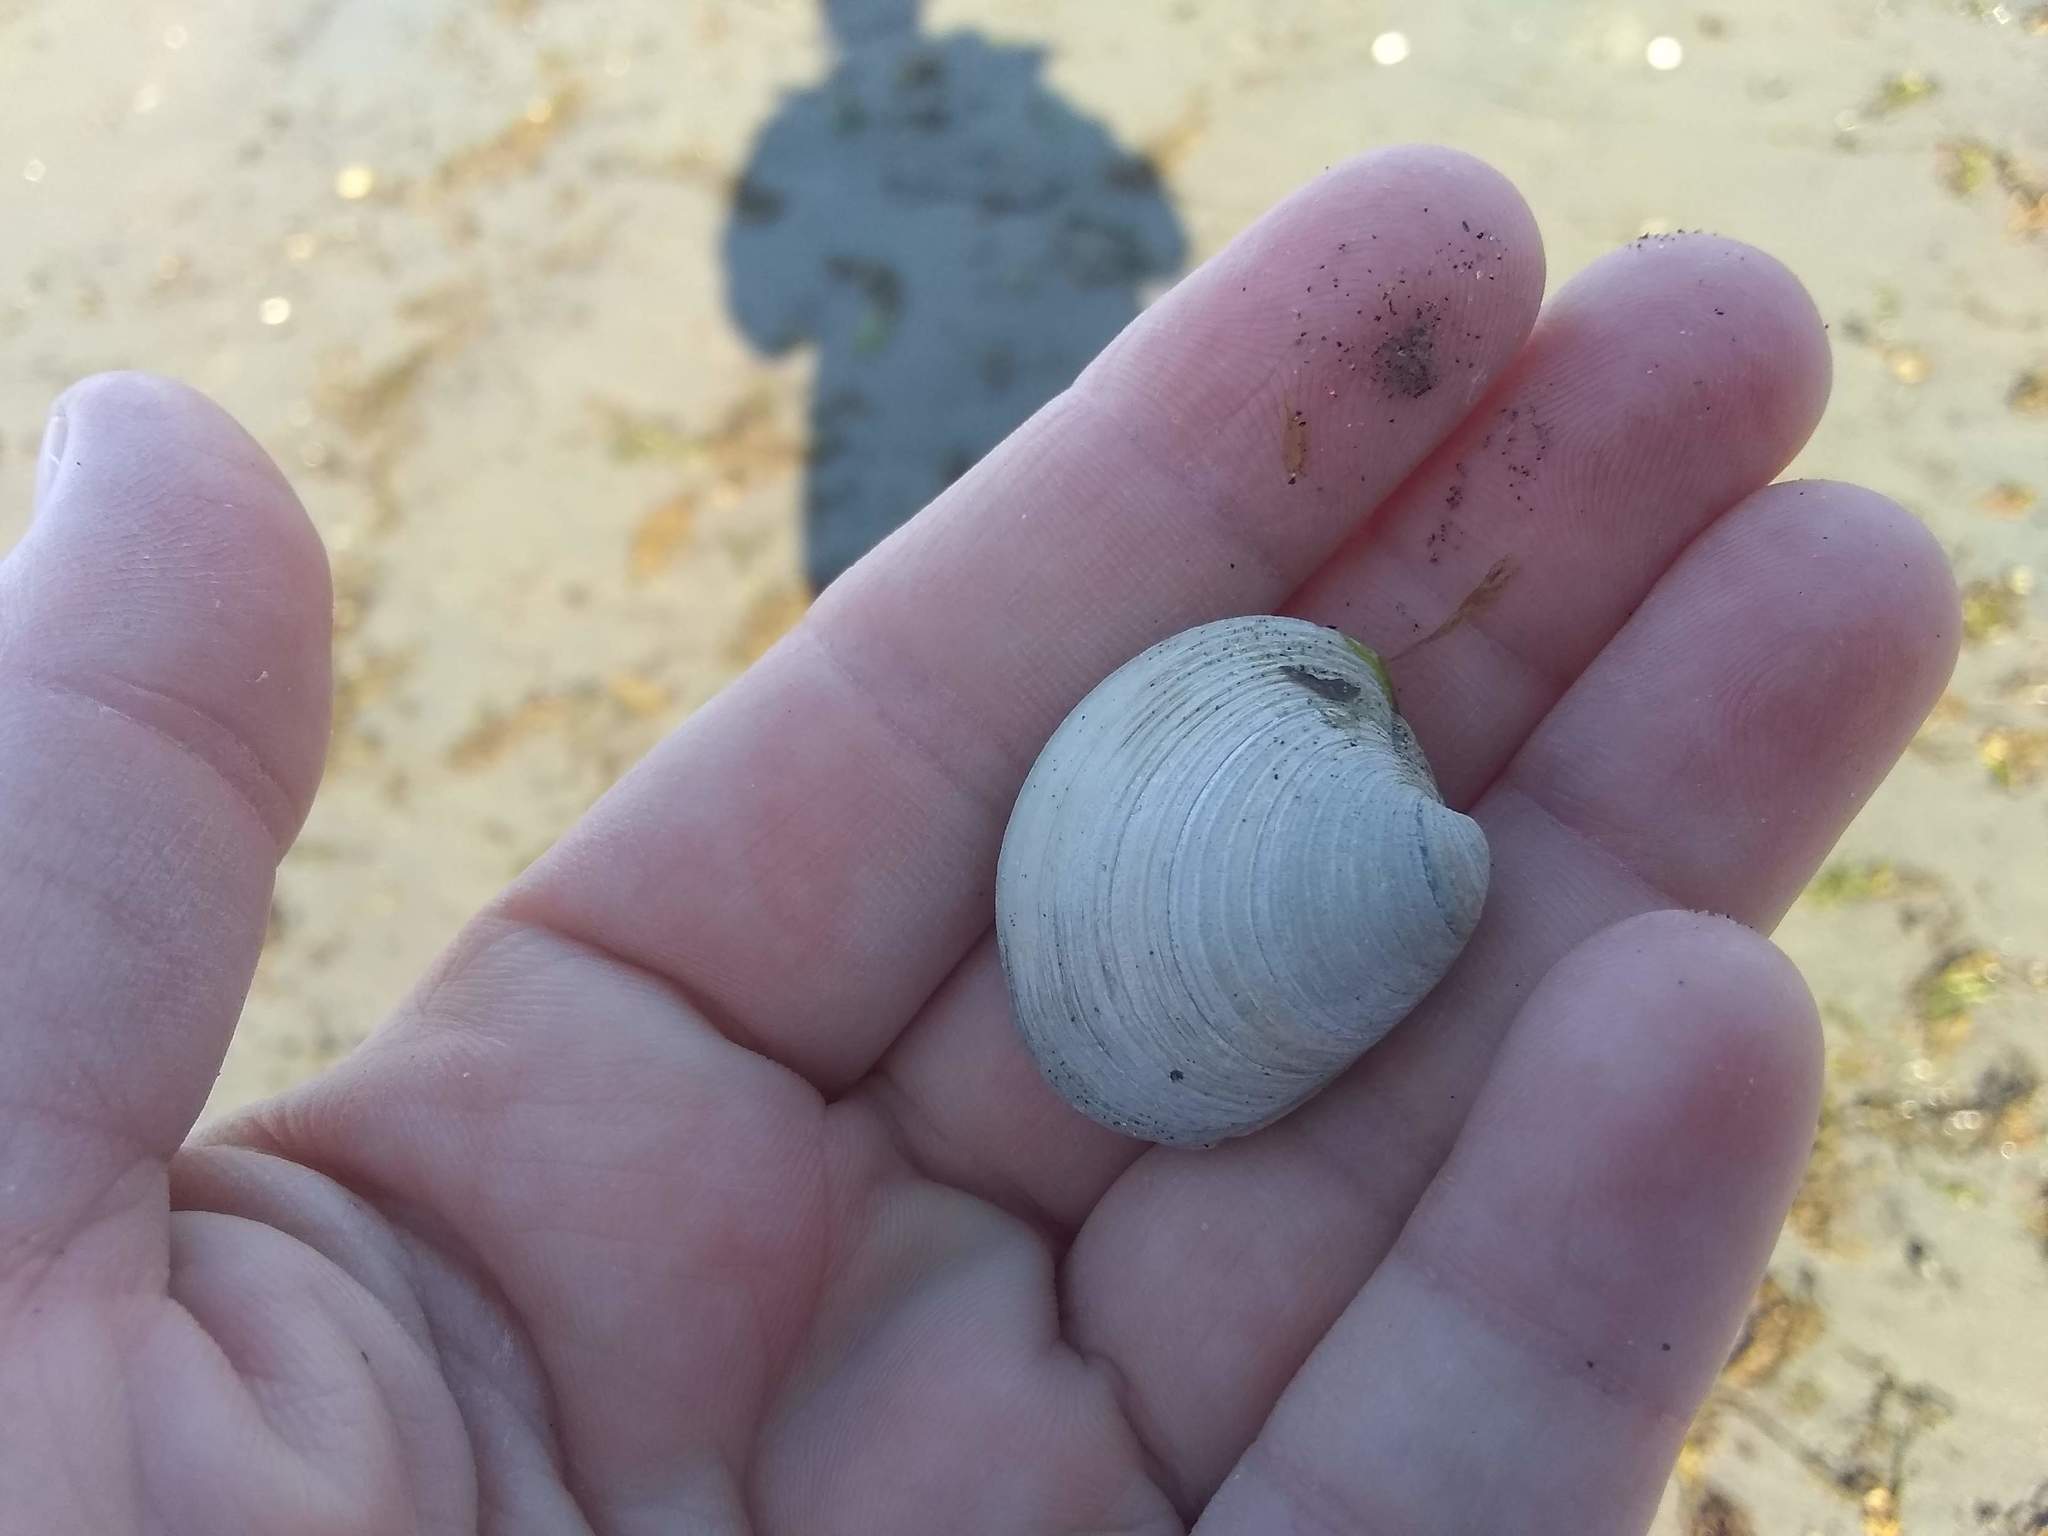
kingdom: Animalia
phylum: Mollusca
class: Bivalvia
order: Venerida
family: Veneridae
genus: Mercenaria
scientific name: Mercenaria mercenaria
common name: American hard-shelled clam
